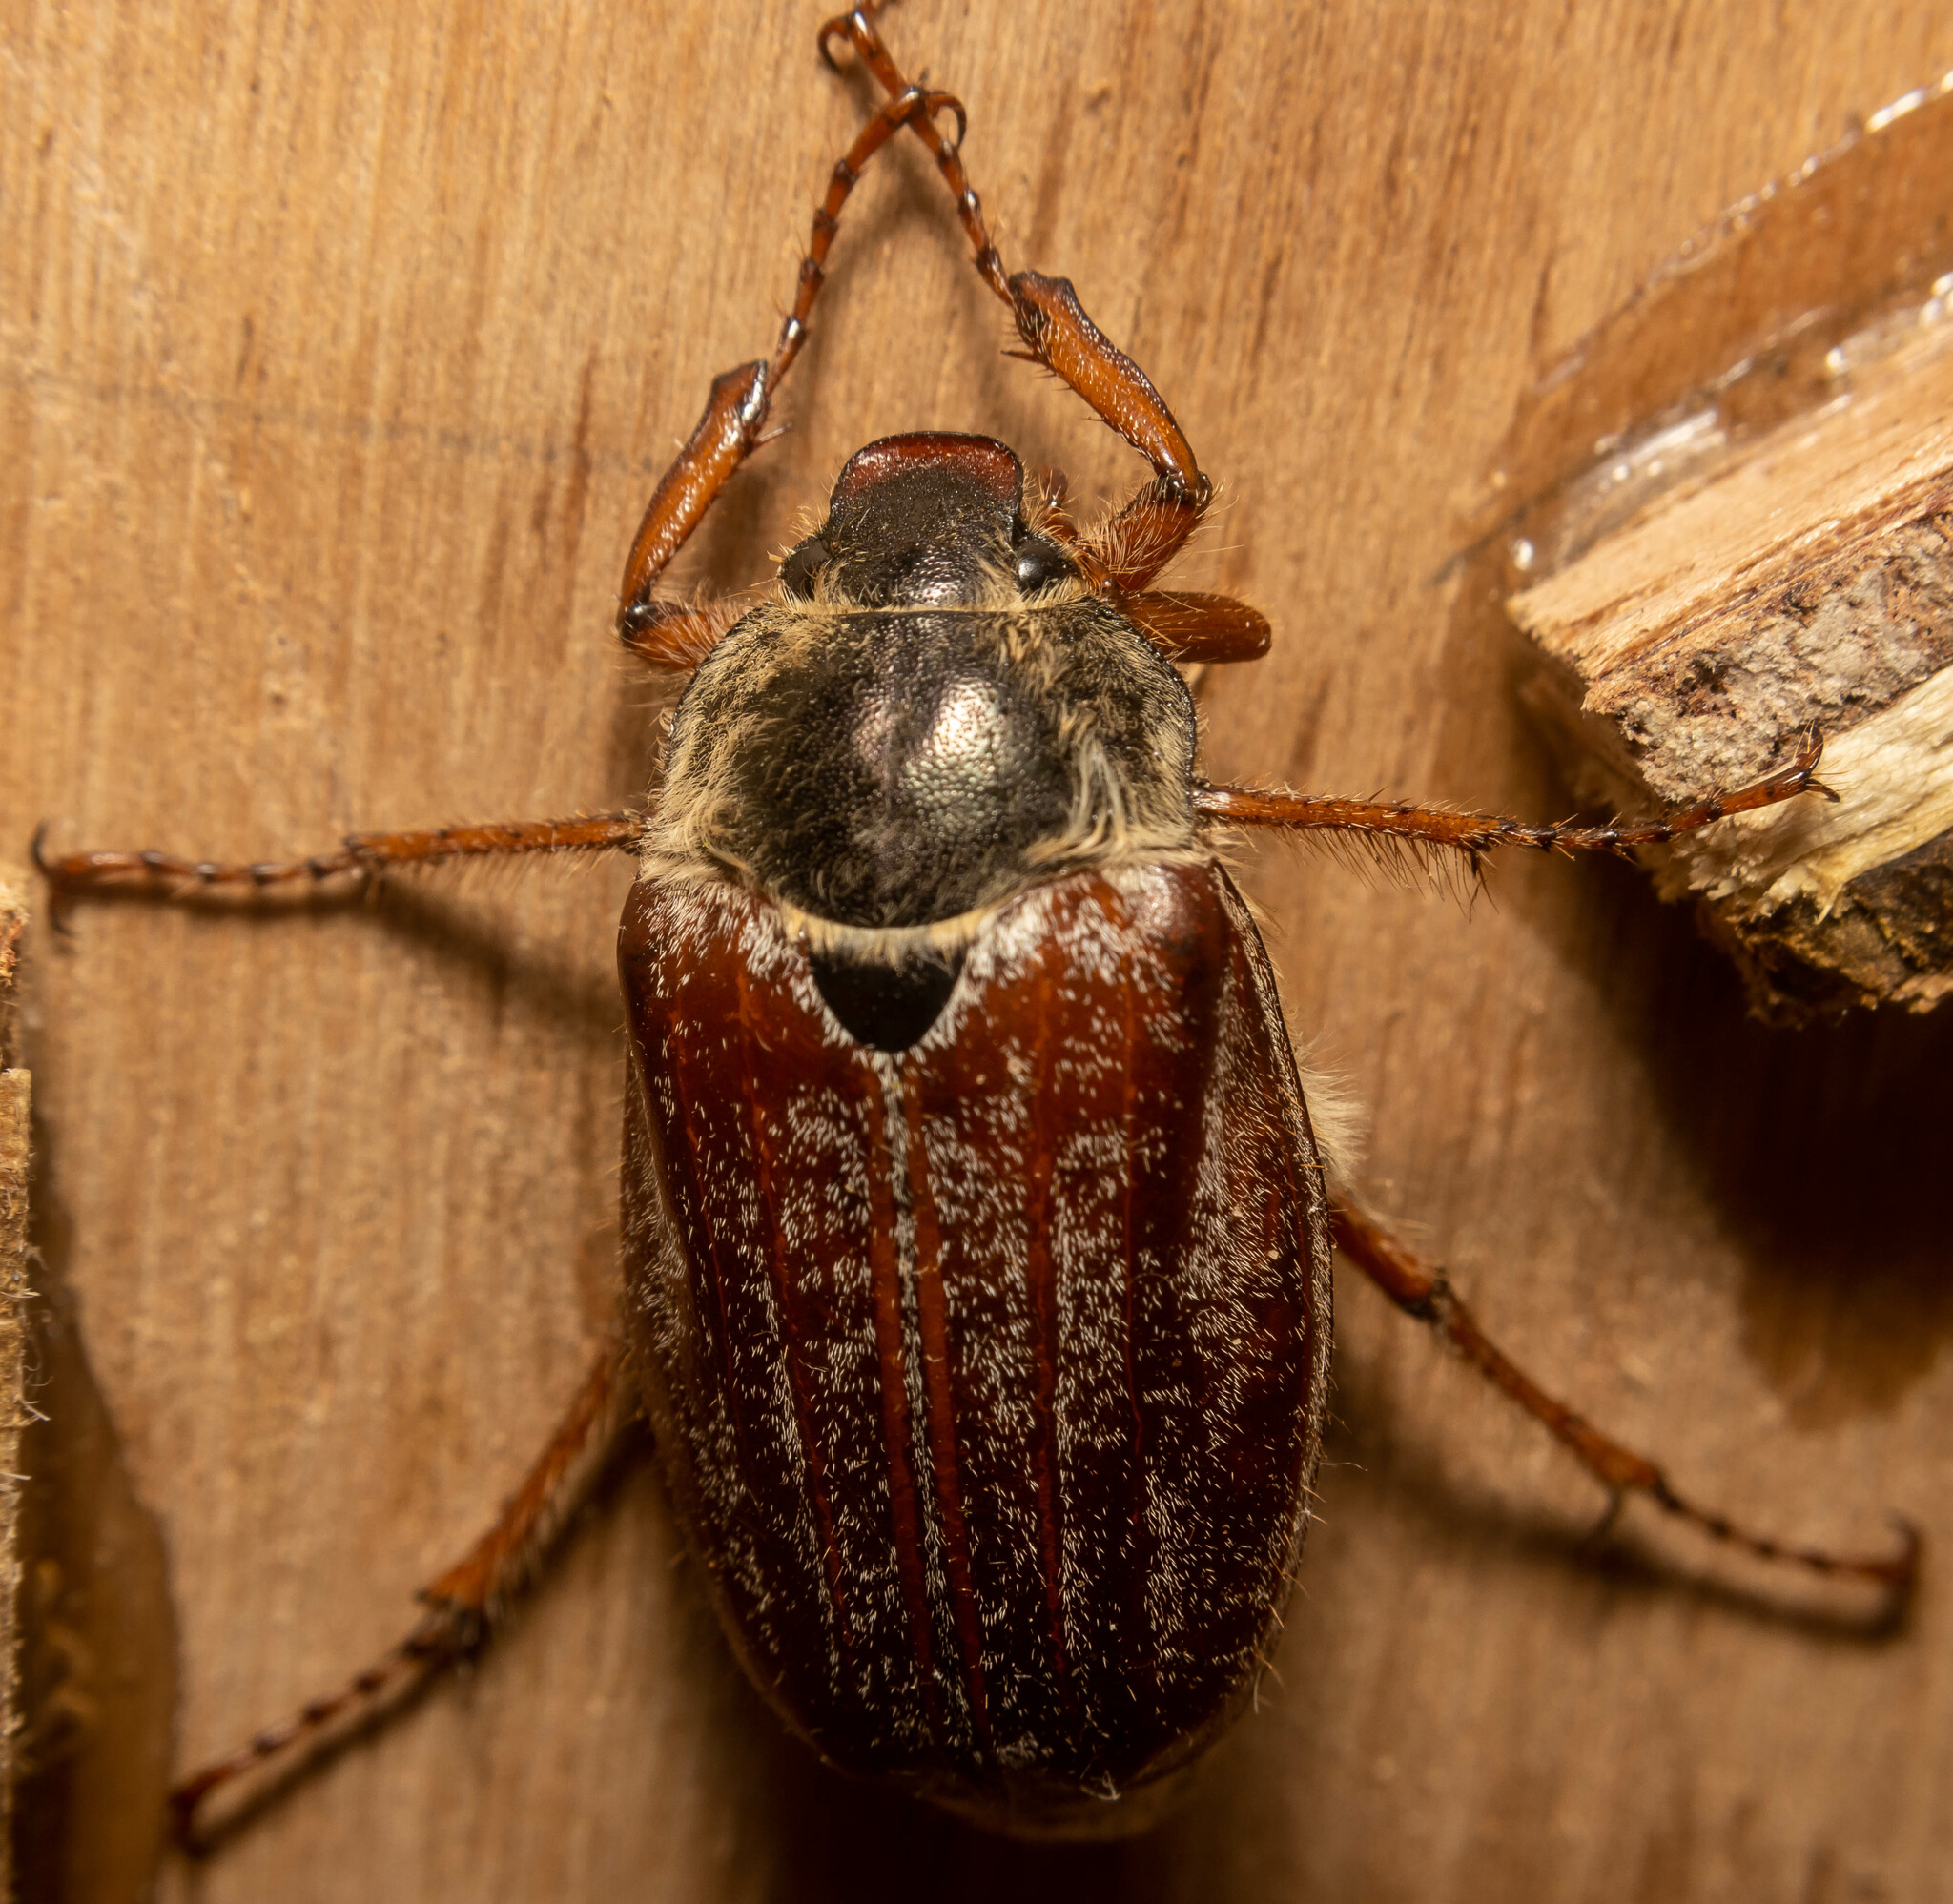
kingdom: Animalia
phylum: Arthropoda
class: Insecta
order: Coleoptera
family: Scarabaeidae
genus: Melolontha
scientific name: Melolontha melolontha
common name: Cockchafer maybeetle
